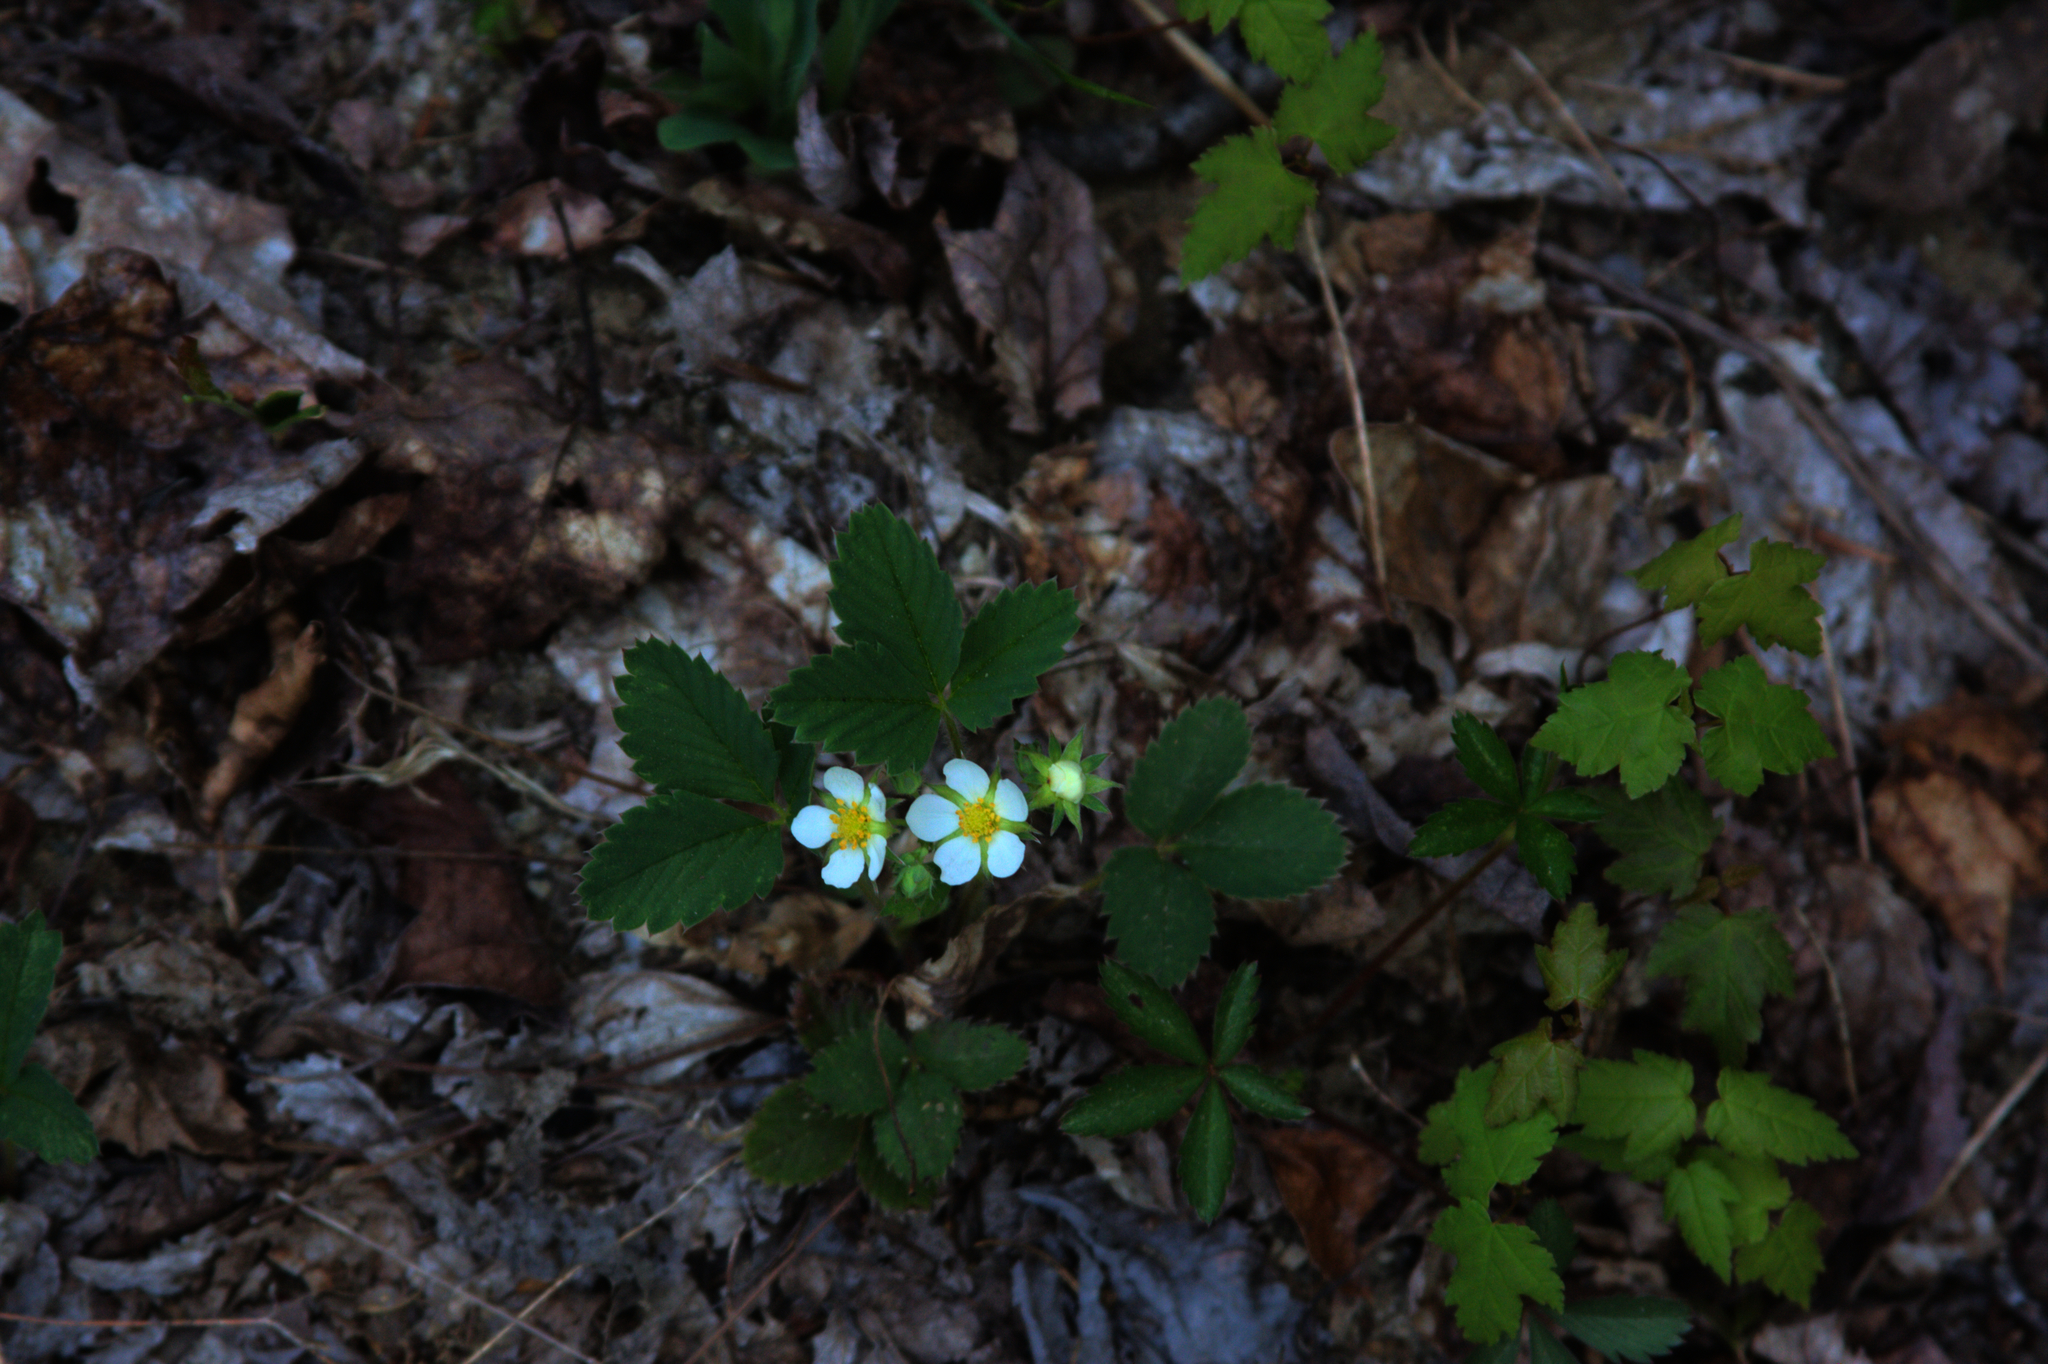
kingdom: Plantae
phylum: Tracheophyta
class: Magnoliopsida
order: Sapindales
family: Sapindaceae
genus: Acer
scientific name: Acer rubrum
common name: Red maple
